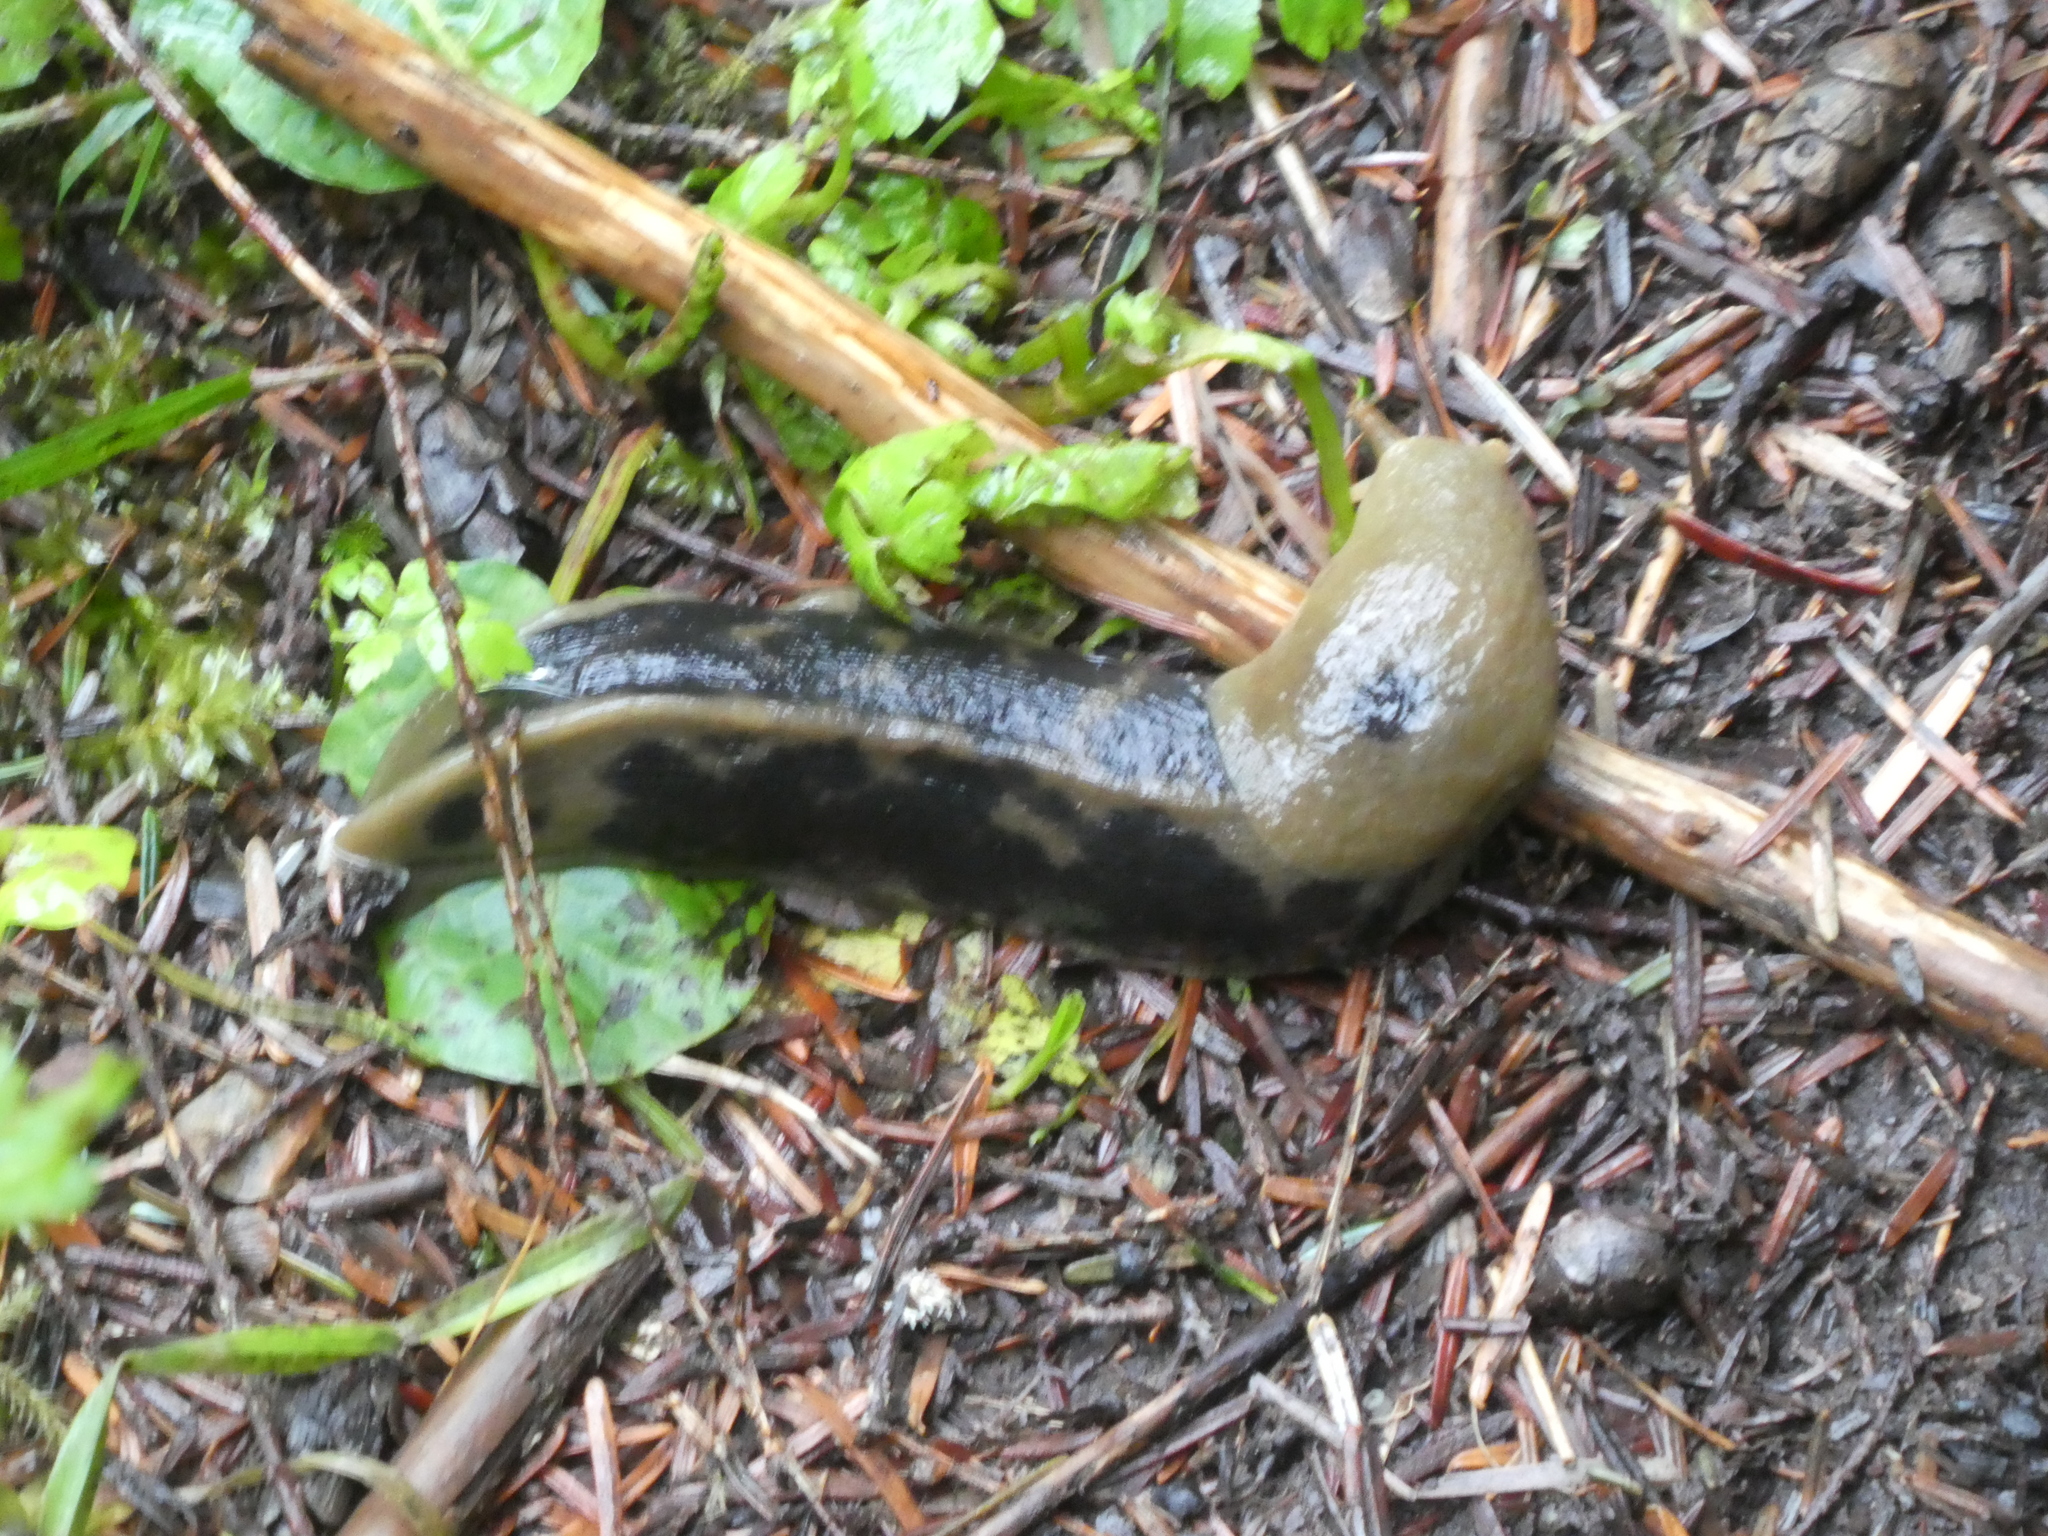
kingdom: Animalia
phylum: Mollusca
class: Gastropoda
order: Stylommatophora
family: Ariolimacidae
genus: Ariolimax
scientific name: Ariolimax columbianus
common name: Pacific banana slug
